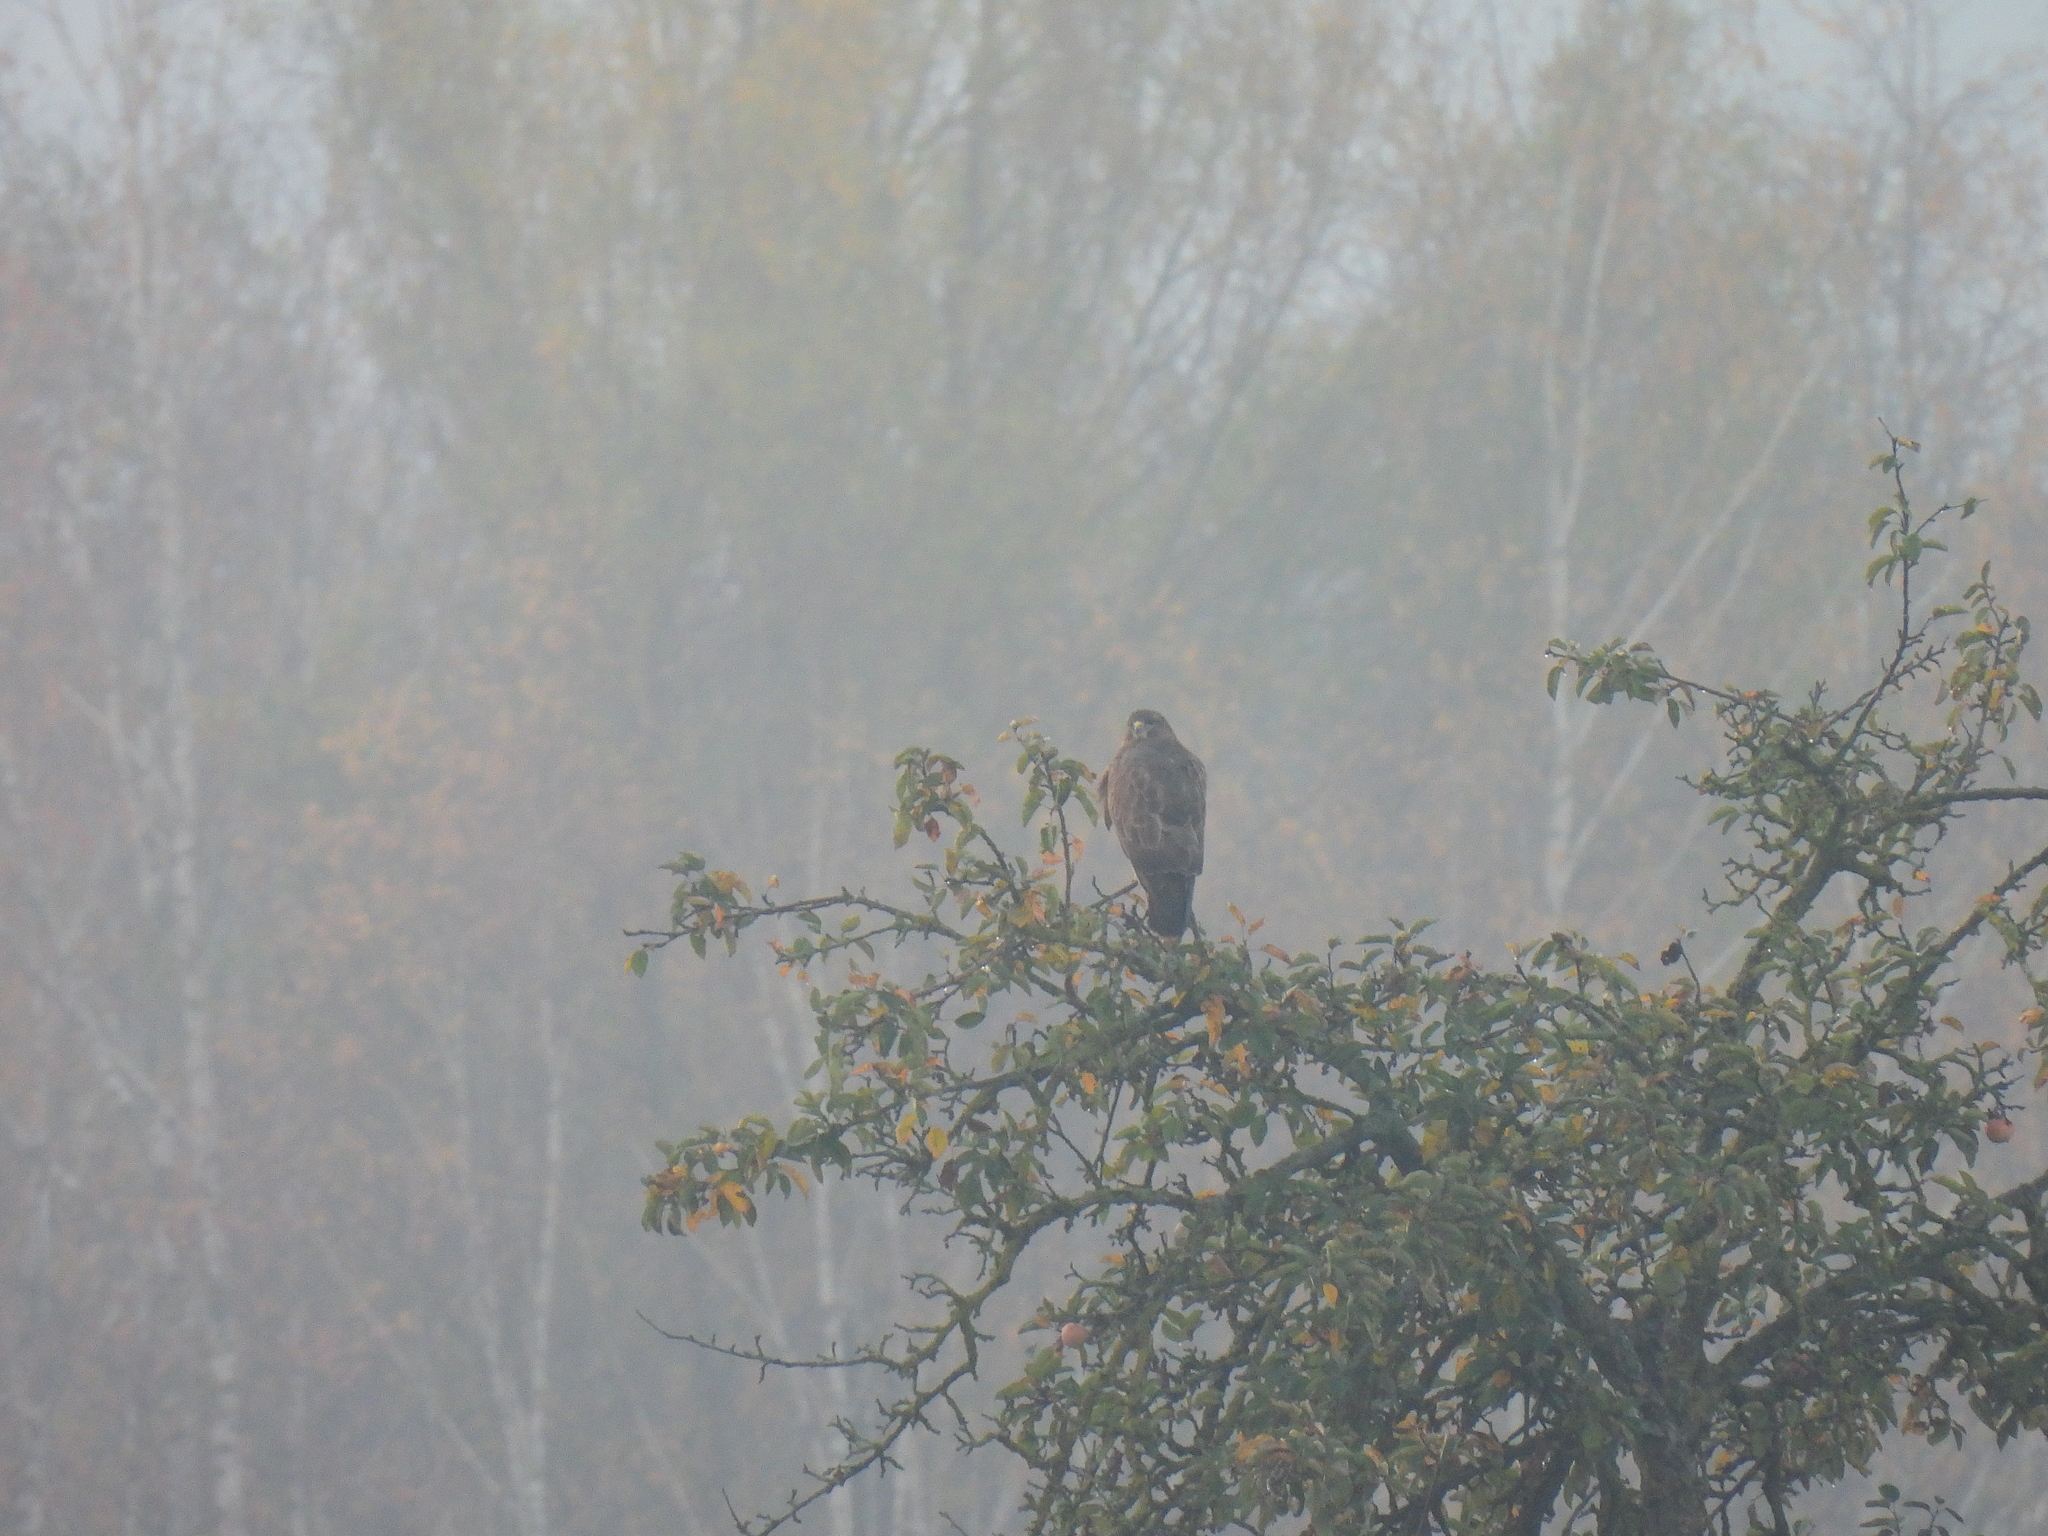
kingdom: Animalia
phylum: Chordata
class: Aves
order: Accipitriformes
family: Accipitridae
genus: Buteo
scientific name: Buteo buteo
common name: Common buzzard
